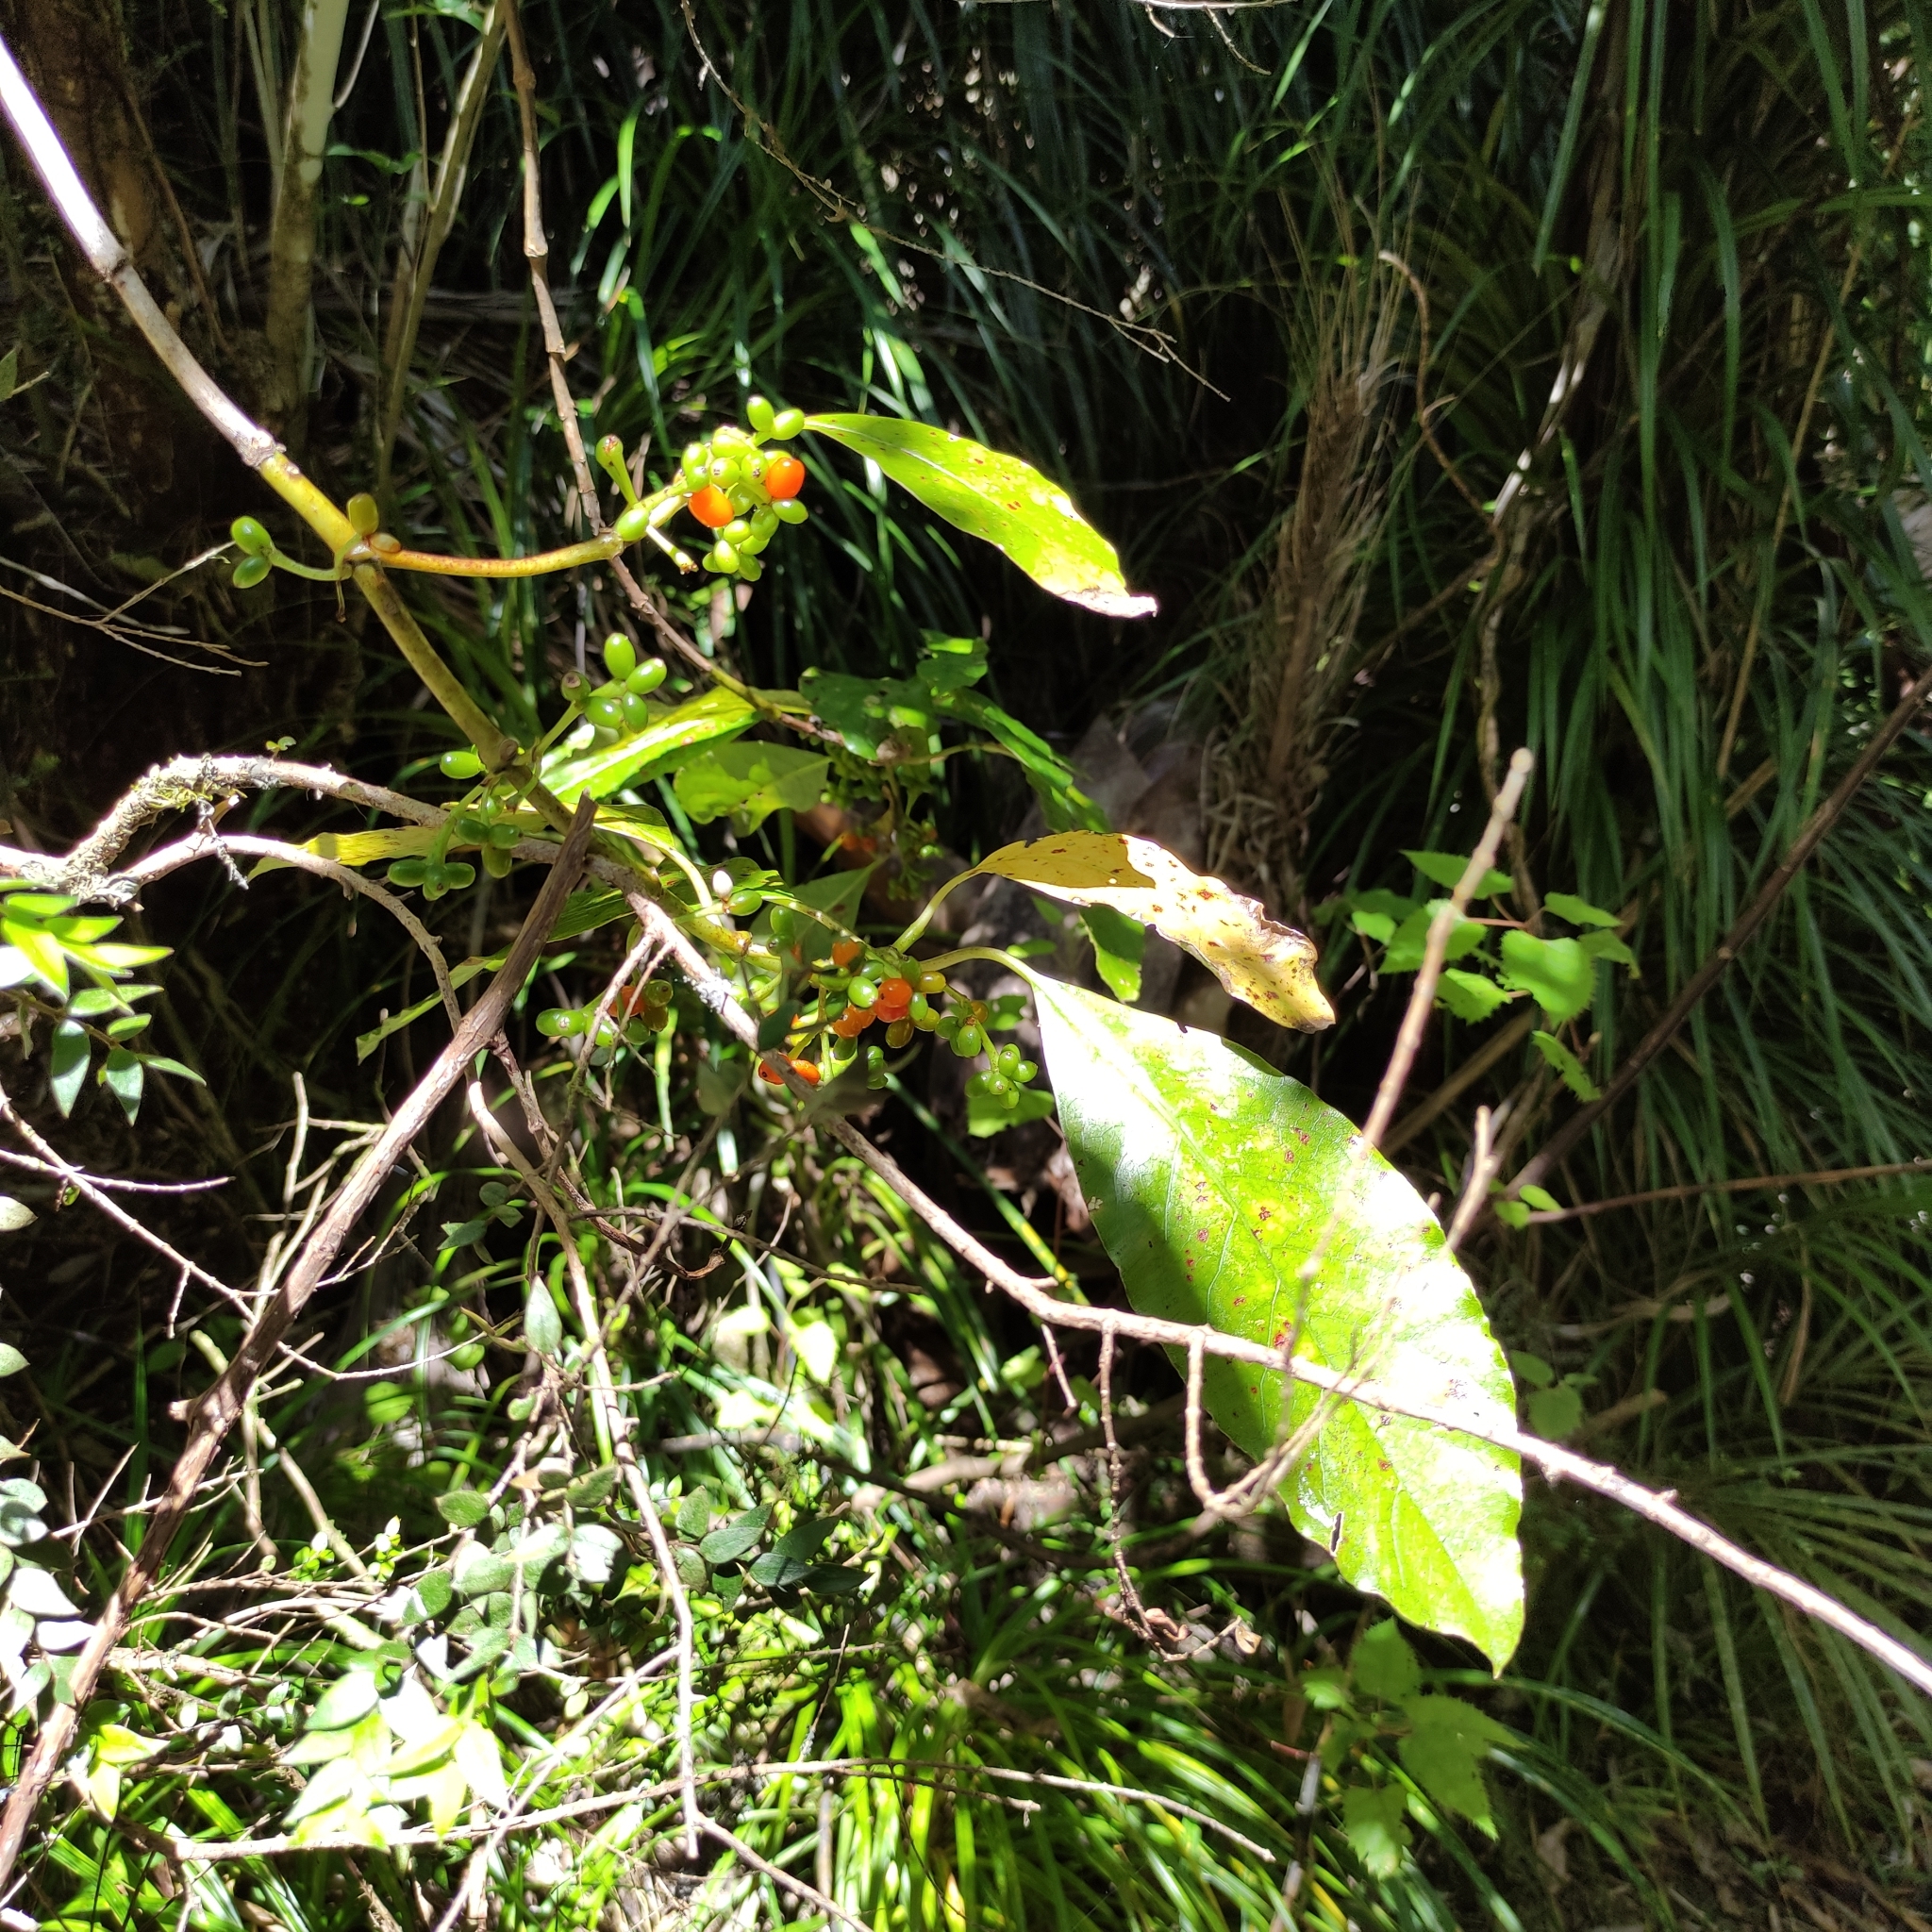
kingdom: Plantae
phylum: Tracheophyta
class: Magnoliopsida
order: Gentianales
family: Rubiaceae
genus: Coprosma
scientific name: Coprosma autumnalis
